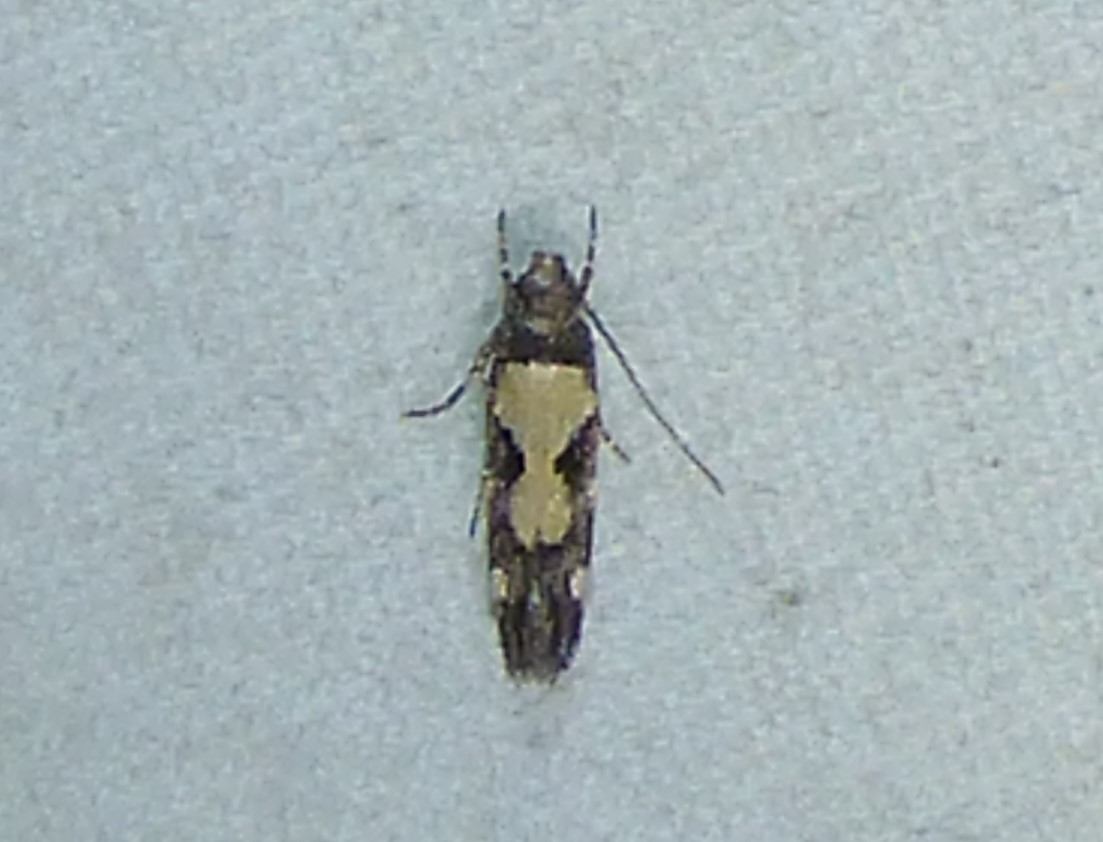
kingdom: Animalia
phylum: Arthropoda
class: Insecta
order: Lepidoptera
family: Gelechiidae
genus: Stegasta
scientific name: Stegasta bosqueella
